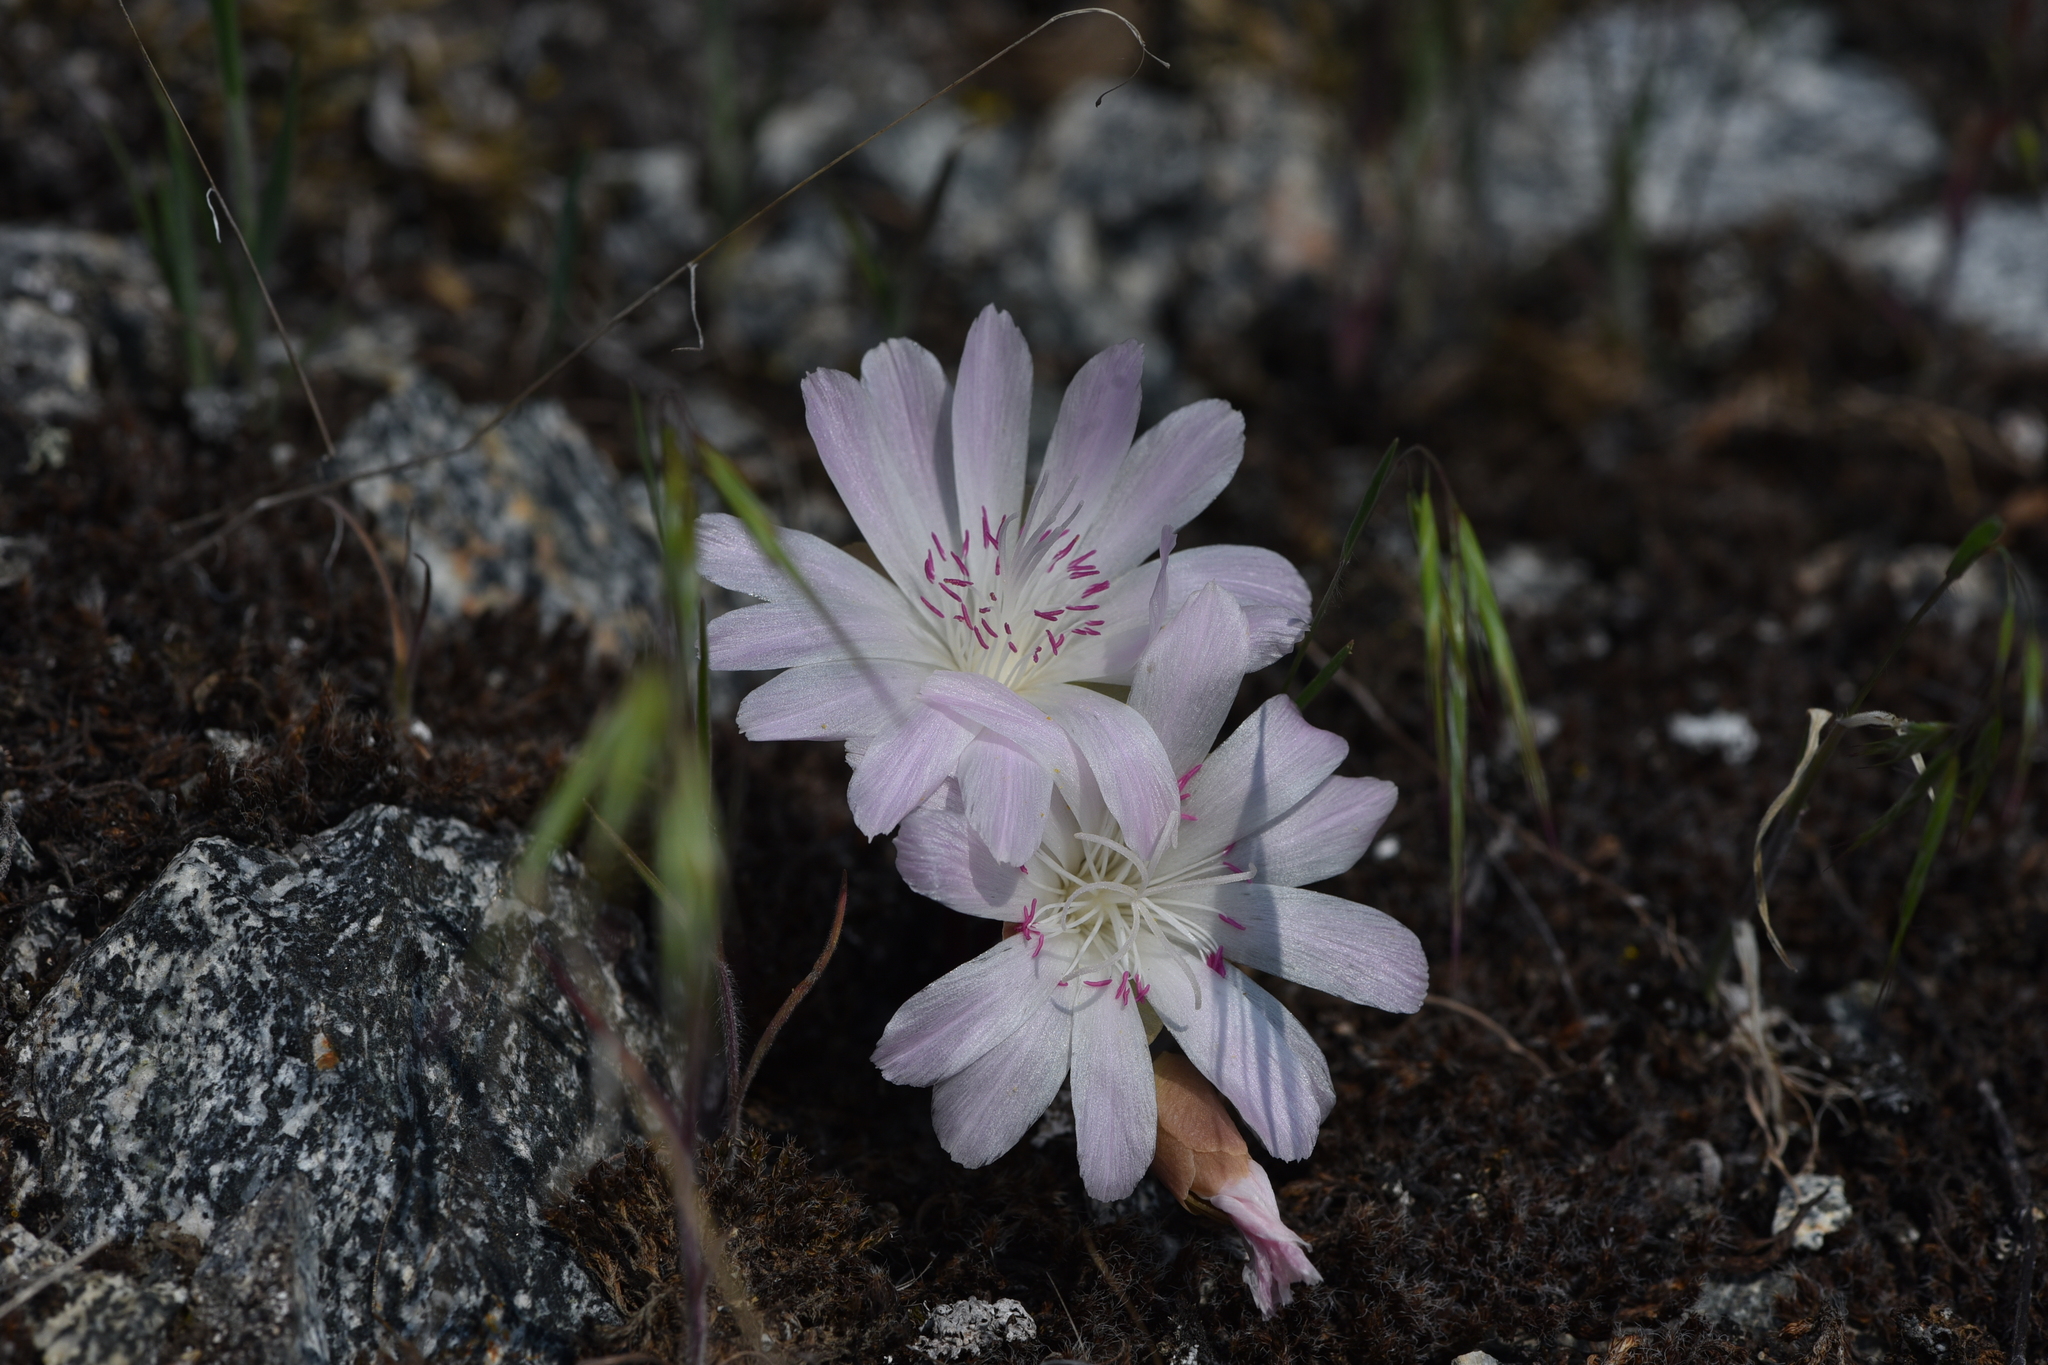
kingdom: Plantae
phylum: Tracheophyta
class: Magnoliopsida
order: Caryophyllales
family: Montiaceae
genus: Lewisia
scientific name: Lewisia rediviva
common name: Bitter-root
